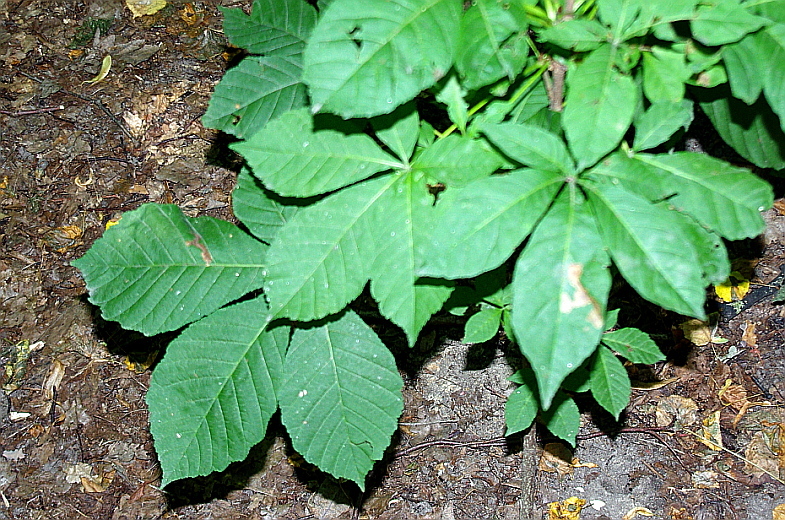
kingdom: Plantae
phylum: Tracheophyta
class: Magnoliopsida
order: Sapindales
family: Sapindaceae
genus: Aesculus
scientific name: Aesculus hippocastanum
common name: Horse-chestnut
